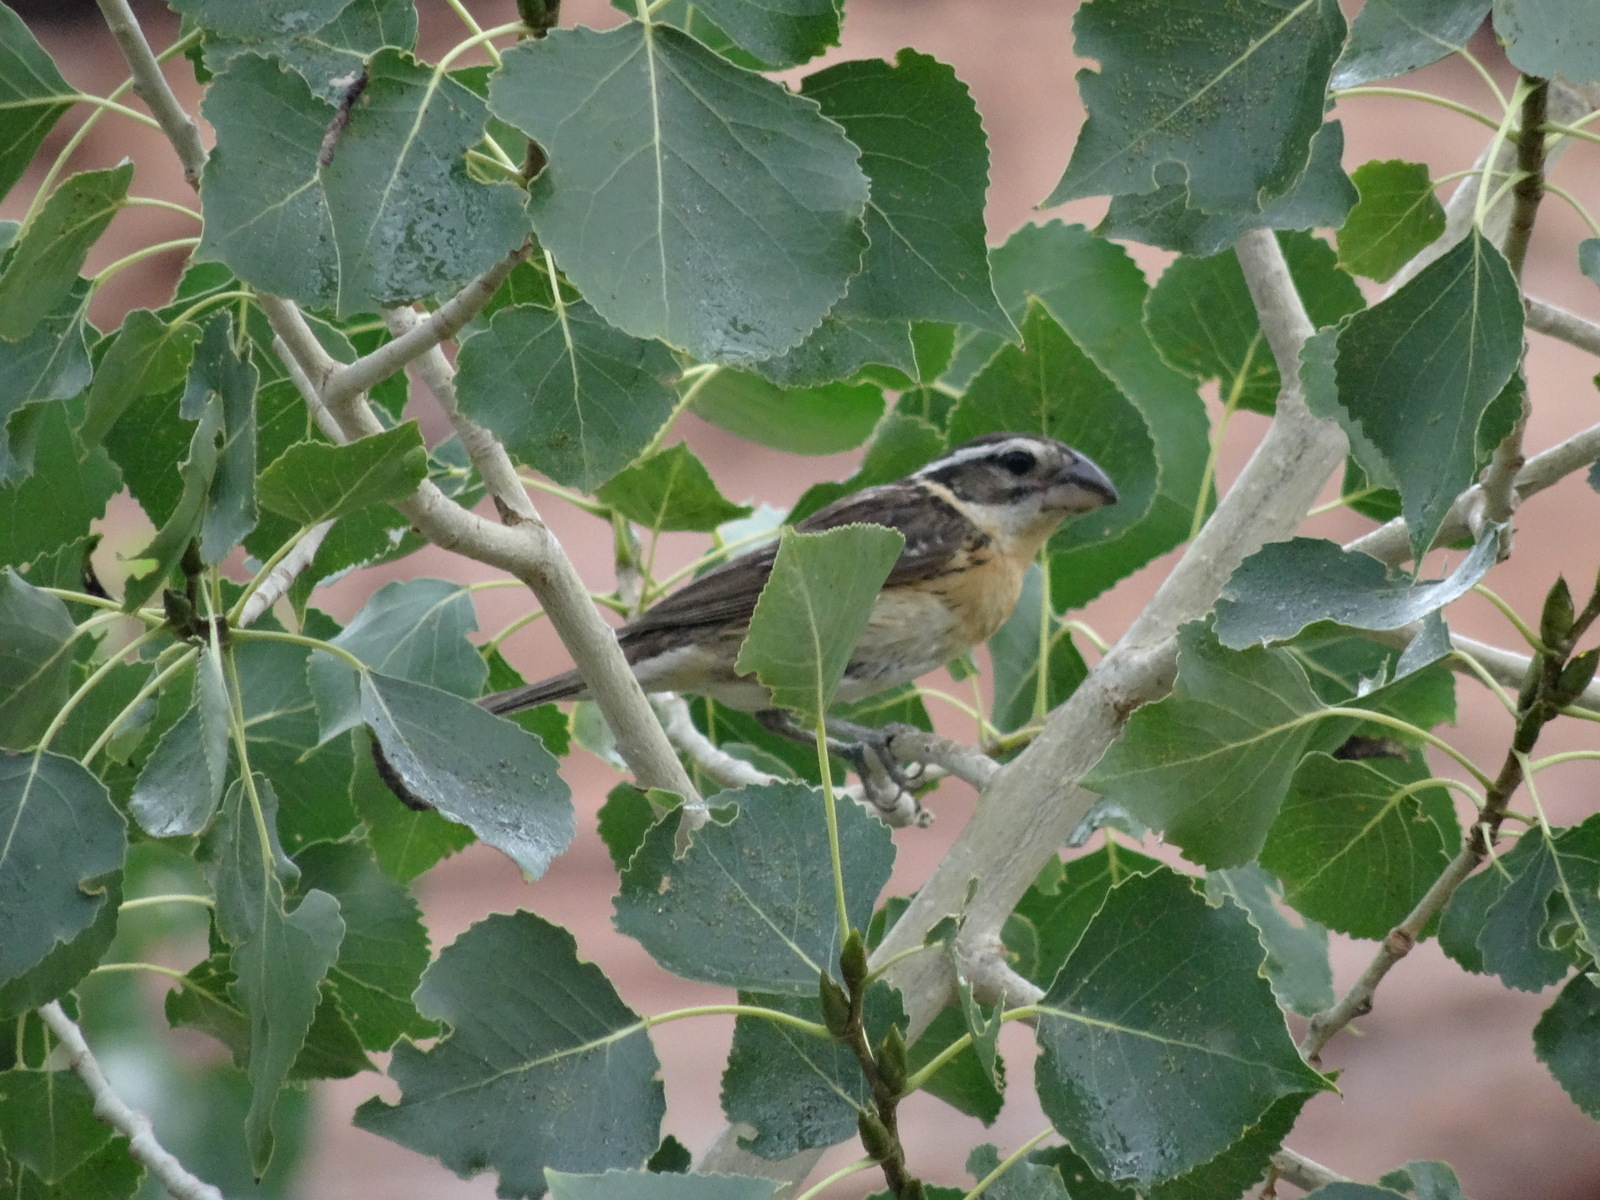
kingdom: Animalia
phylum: Chordata
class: Aves
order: Passeriformes
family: Cardinalidae
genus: Pheucticus
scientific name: Pheucticus melanocephalus
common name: Black-headed grosbeak
